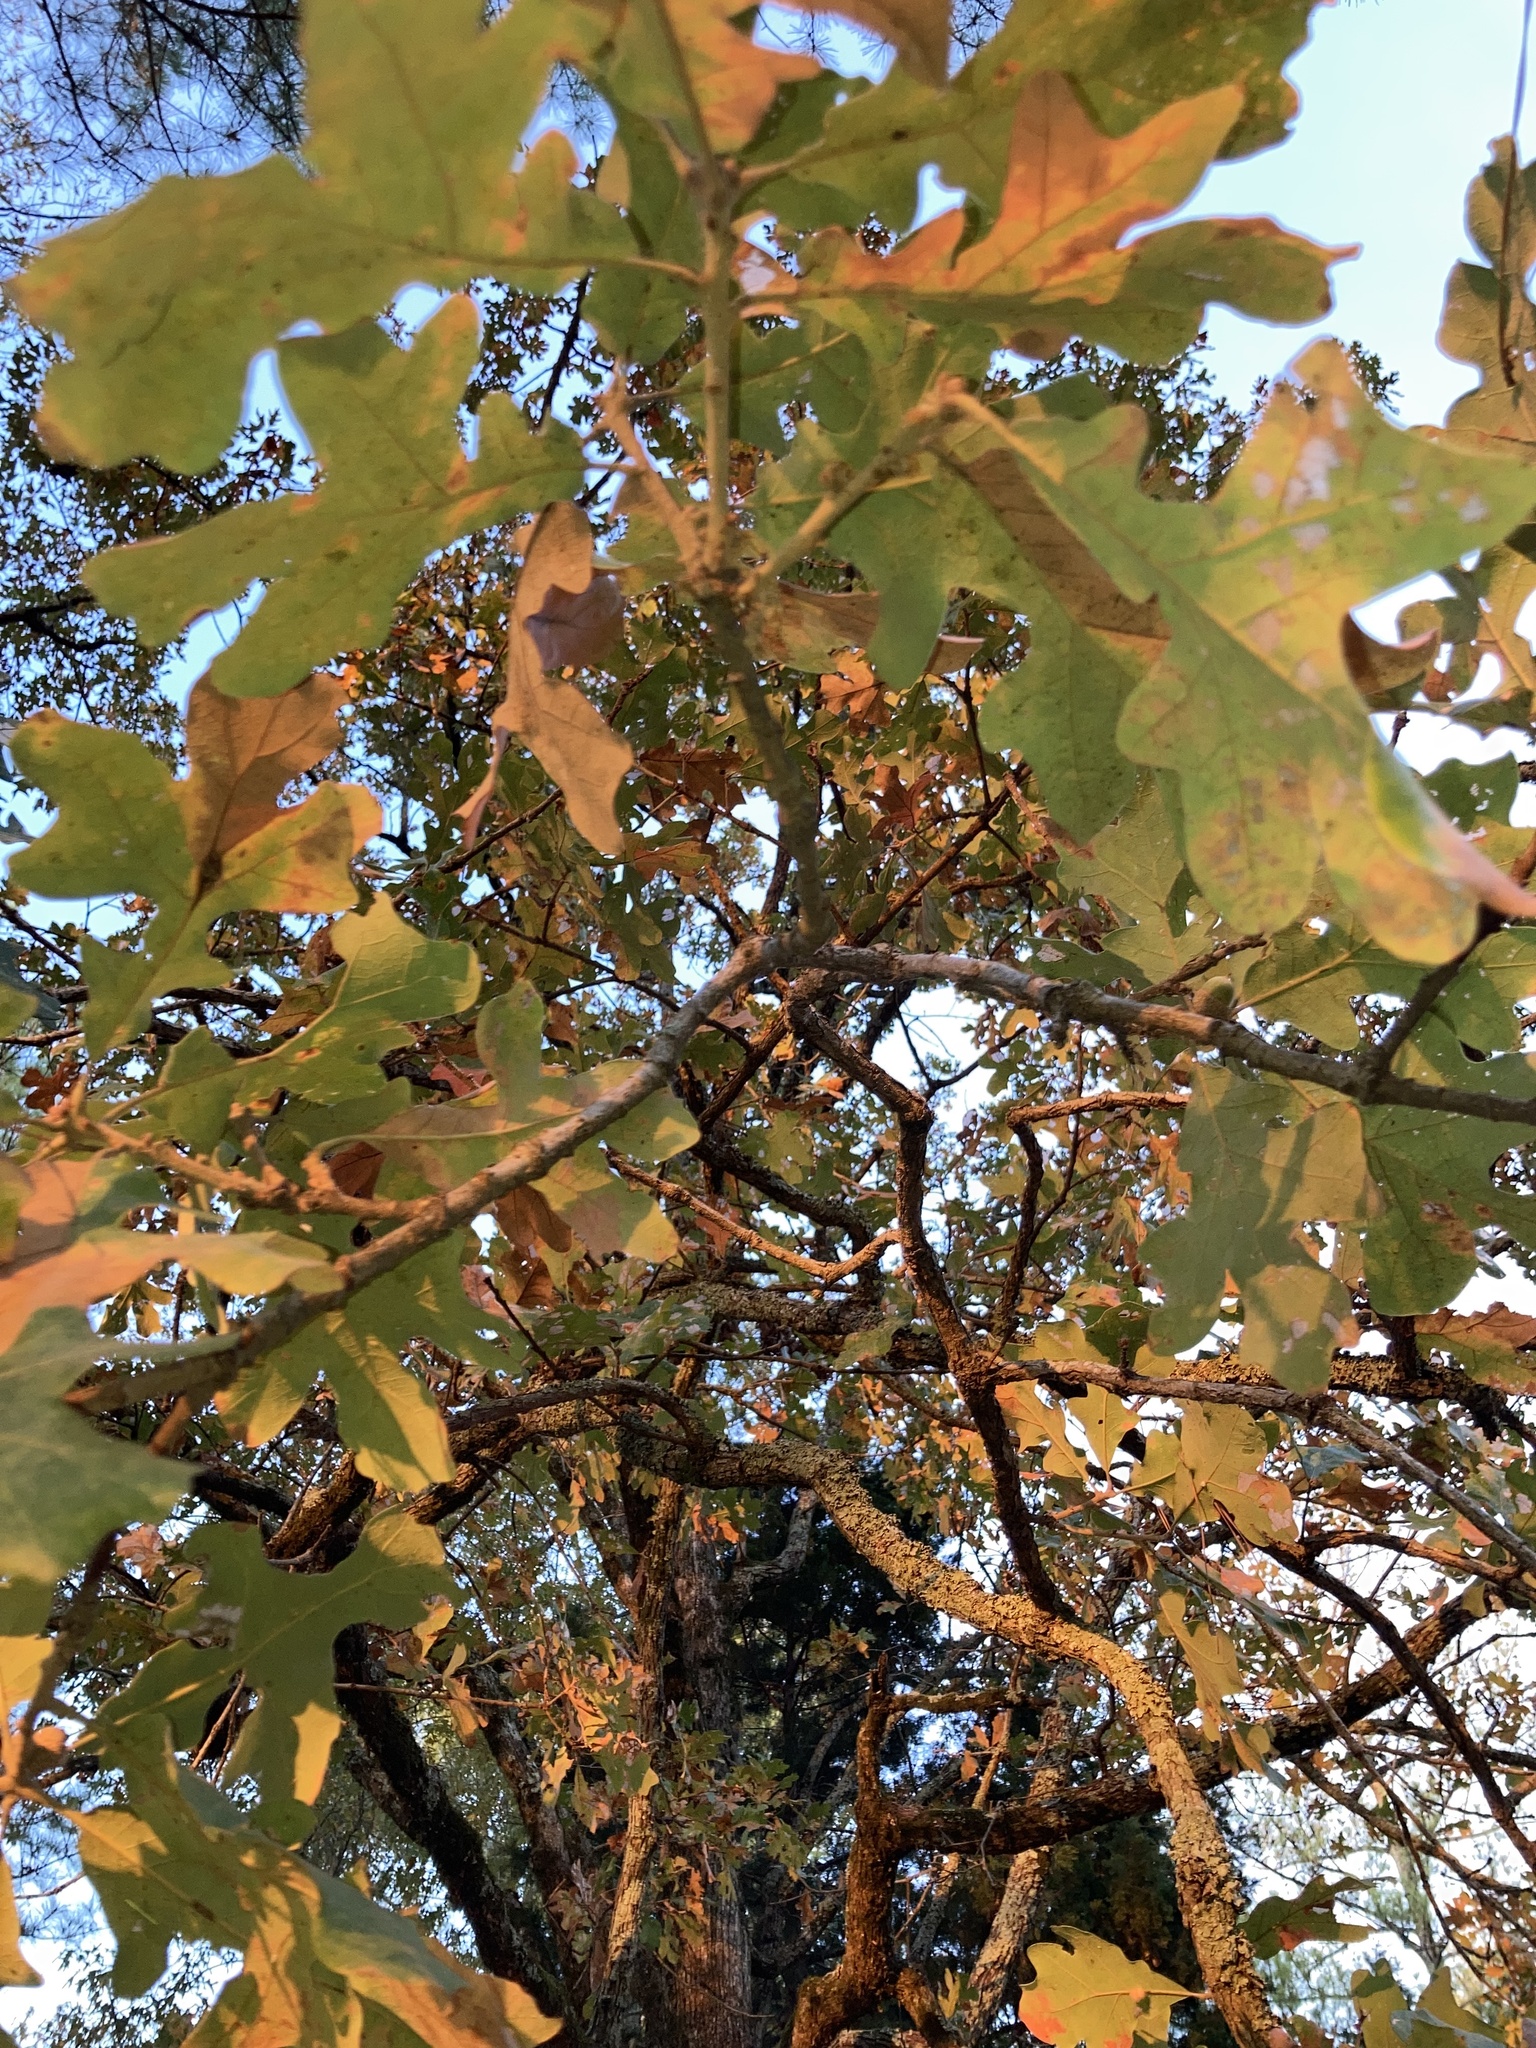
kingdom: Plantae
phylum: Tracheophyta
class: Magnoliopsida
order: Fagales
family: Fagaceae
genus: Quercus
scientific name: Quercus stellata
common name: Post oak
